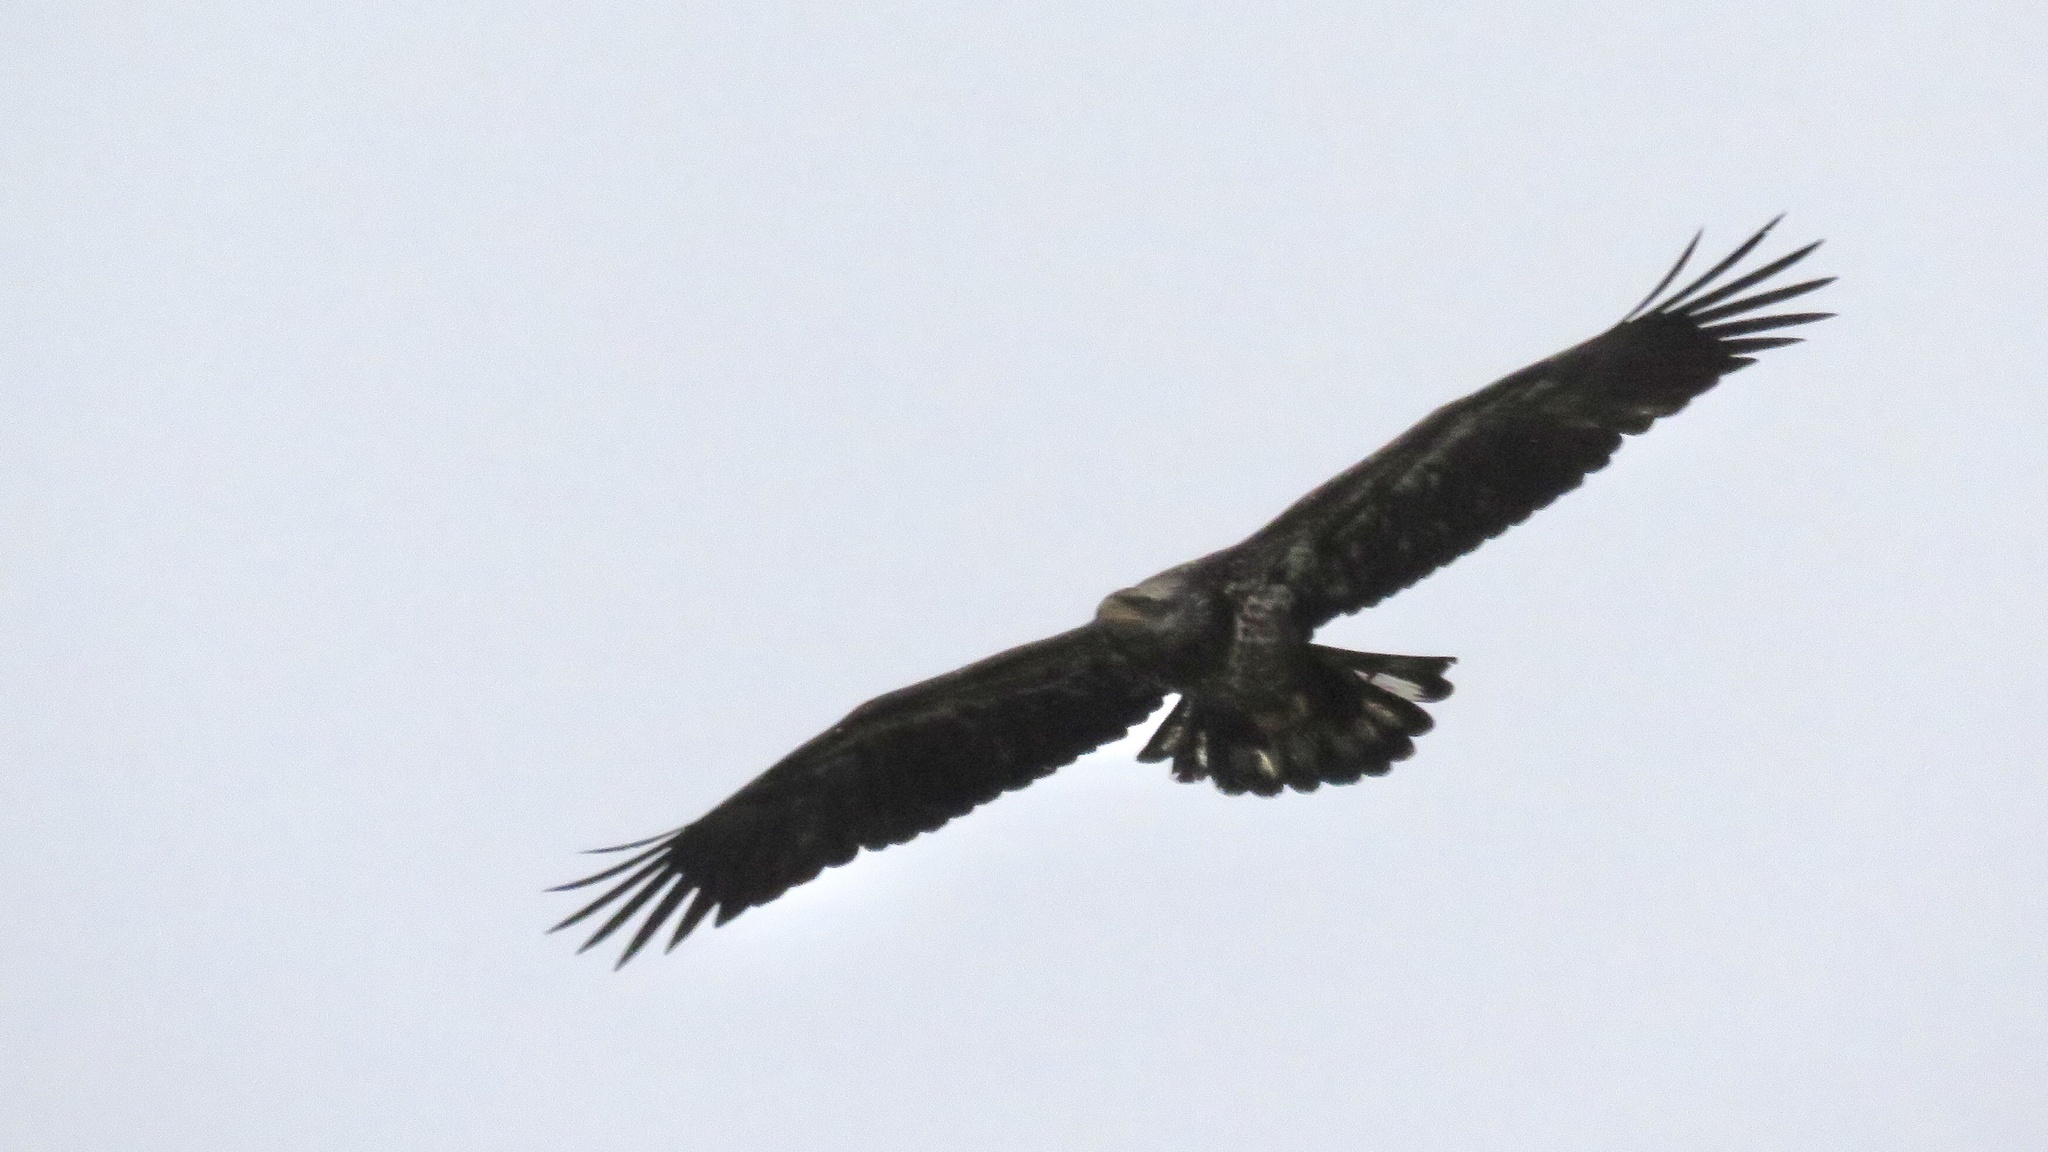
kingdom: Animalia
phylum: Chordata
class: Aves
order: Accipitriformes
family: Accipitridae
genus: Haliaeetus
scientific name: Haliaeetus leucocephalus
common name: Bald eagle
